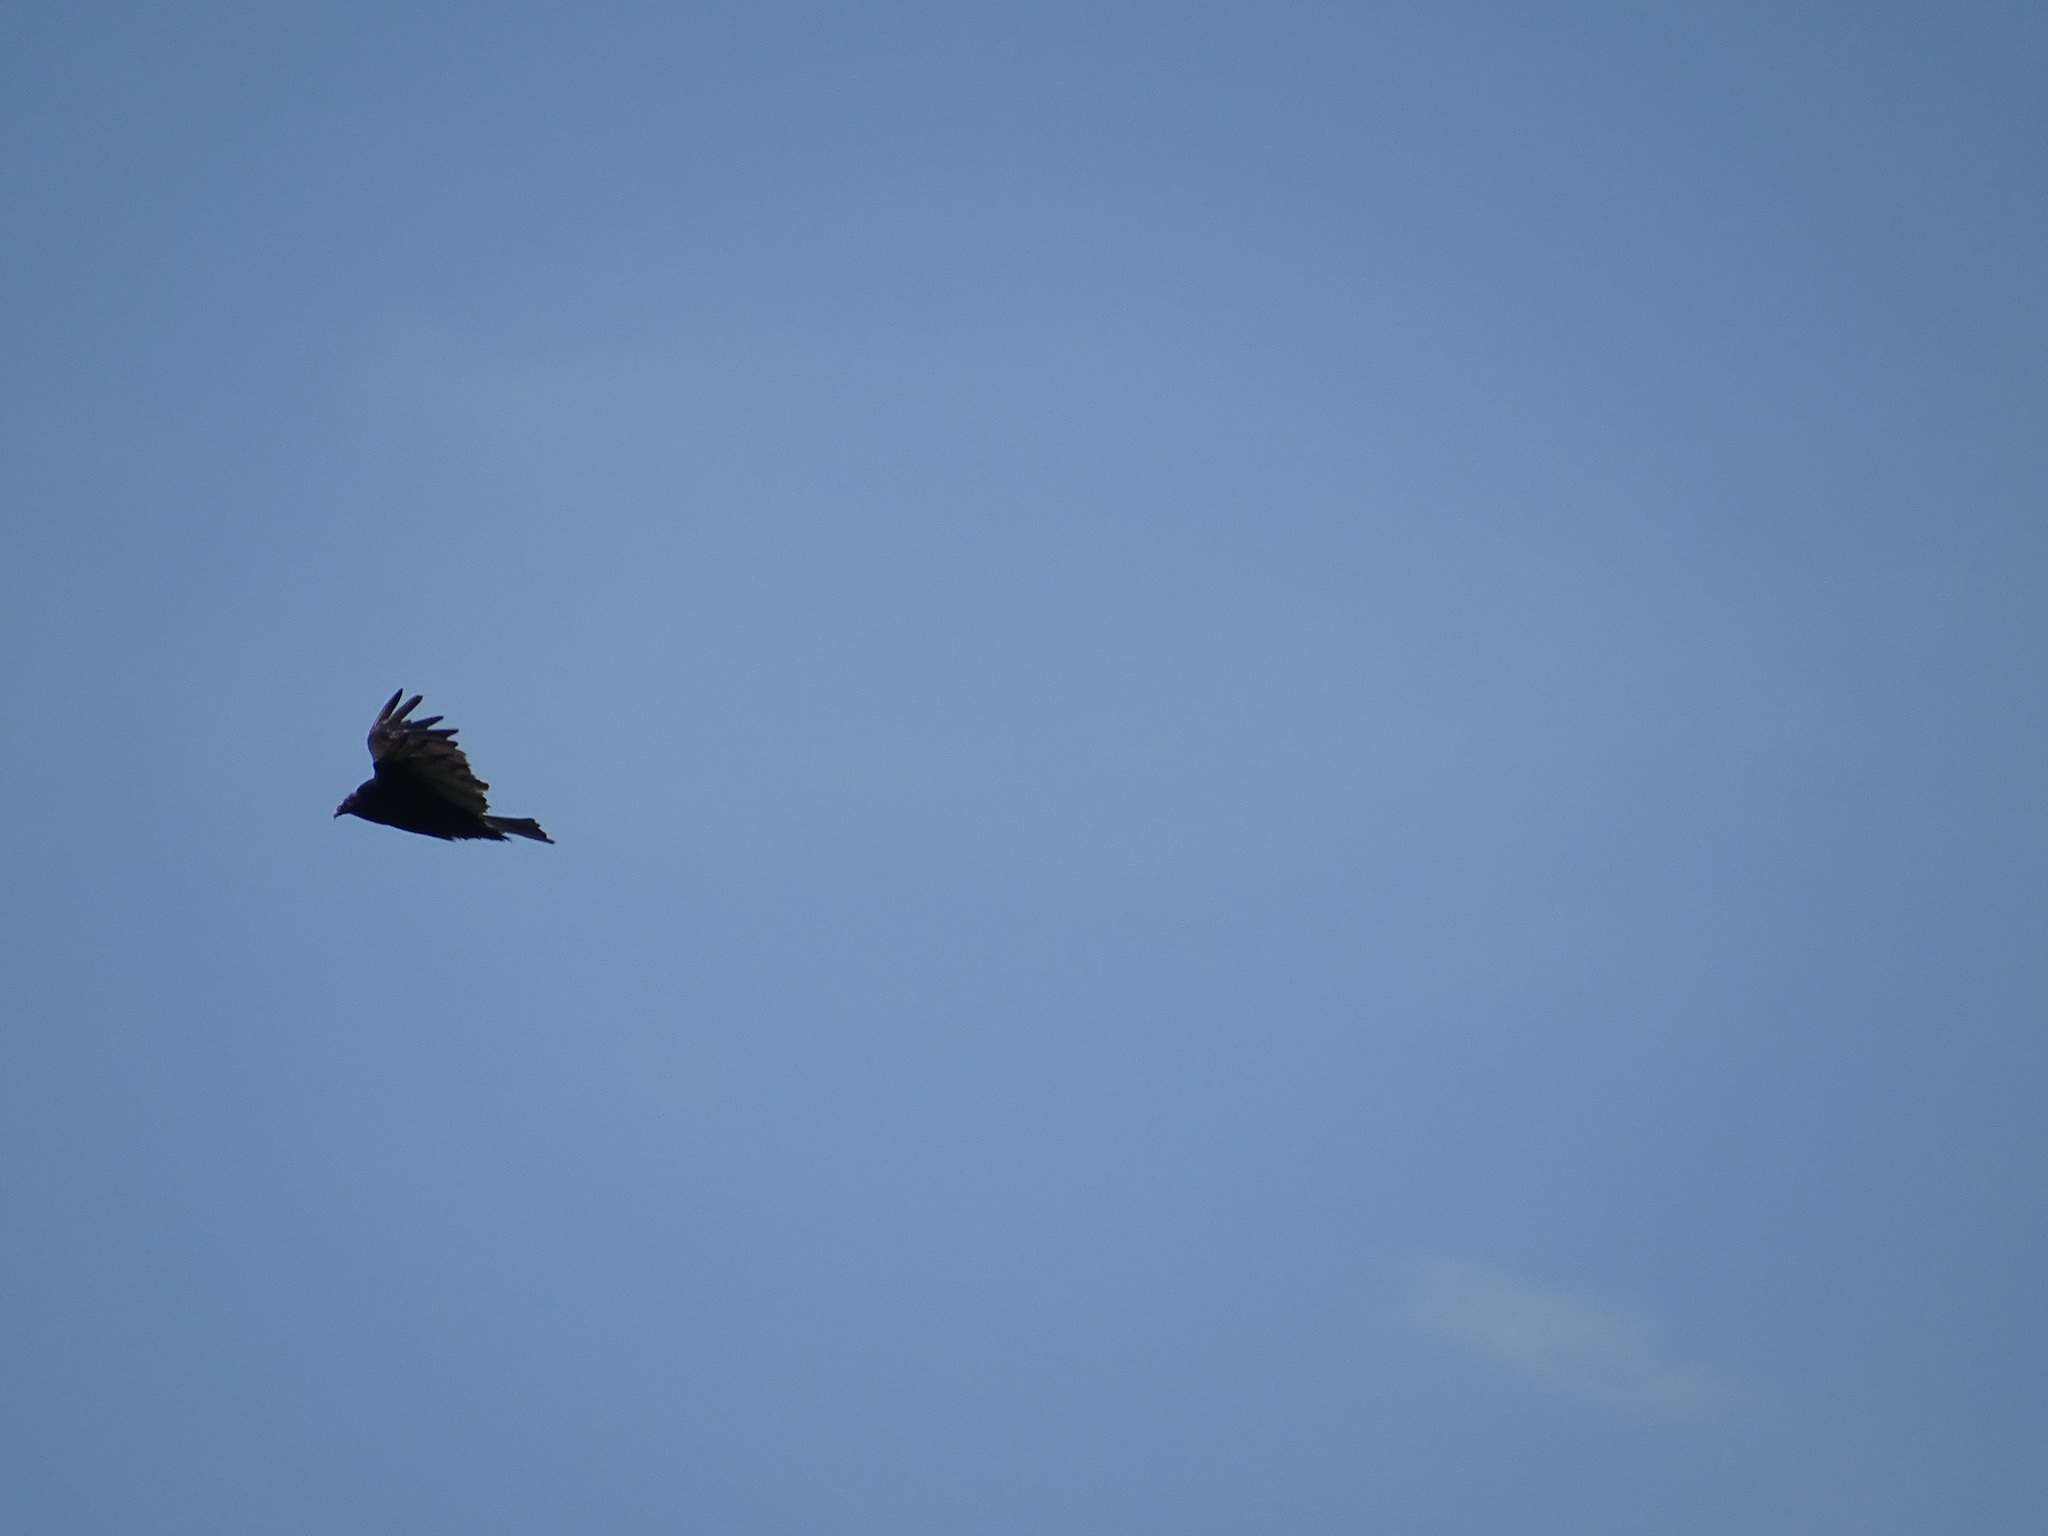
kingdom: Animalia
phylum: Chordata
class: Aves
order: Accipitriformes
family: Cathartidae
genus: Cathartes
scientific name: Cathartes aura
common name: Turkey vulture
